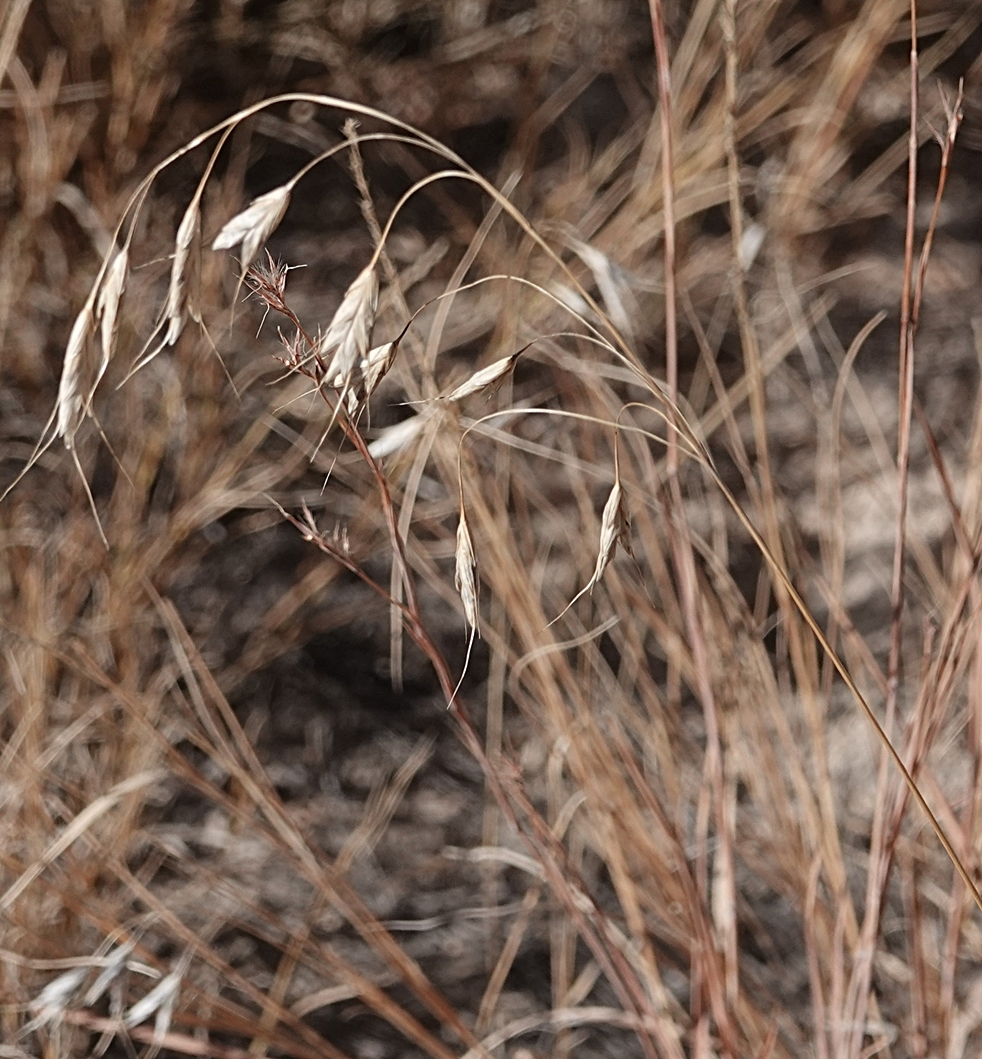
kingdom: Plantae
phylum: Tracheophyta
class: Liliopsida
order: Poales
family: Poaceae
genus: Bromus
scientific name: Bromus japonicus
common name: Japanese brome
